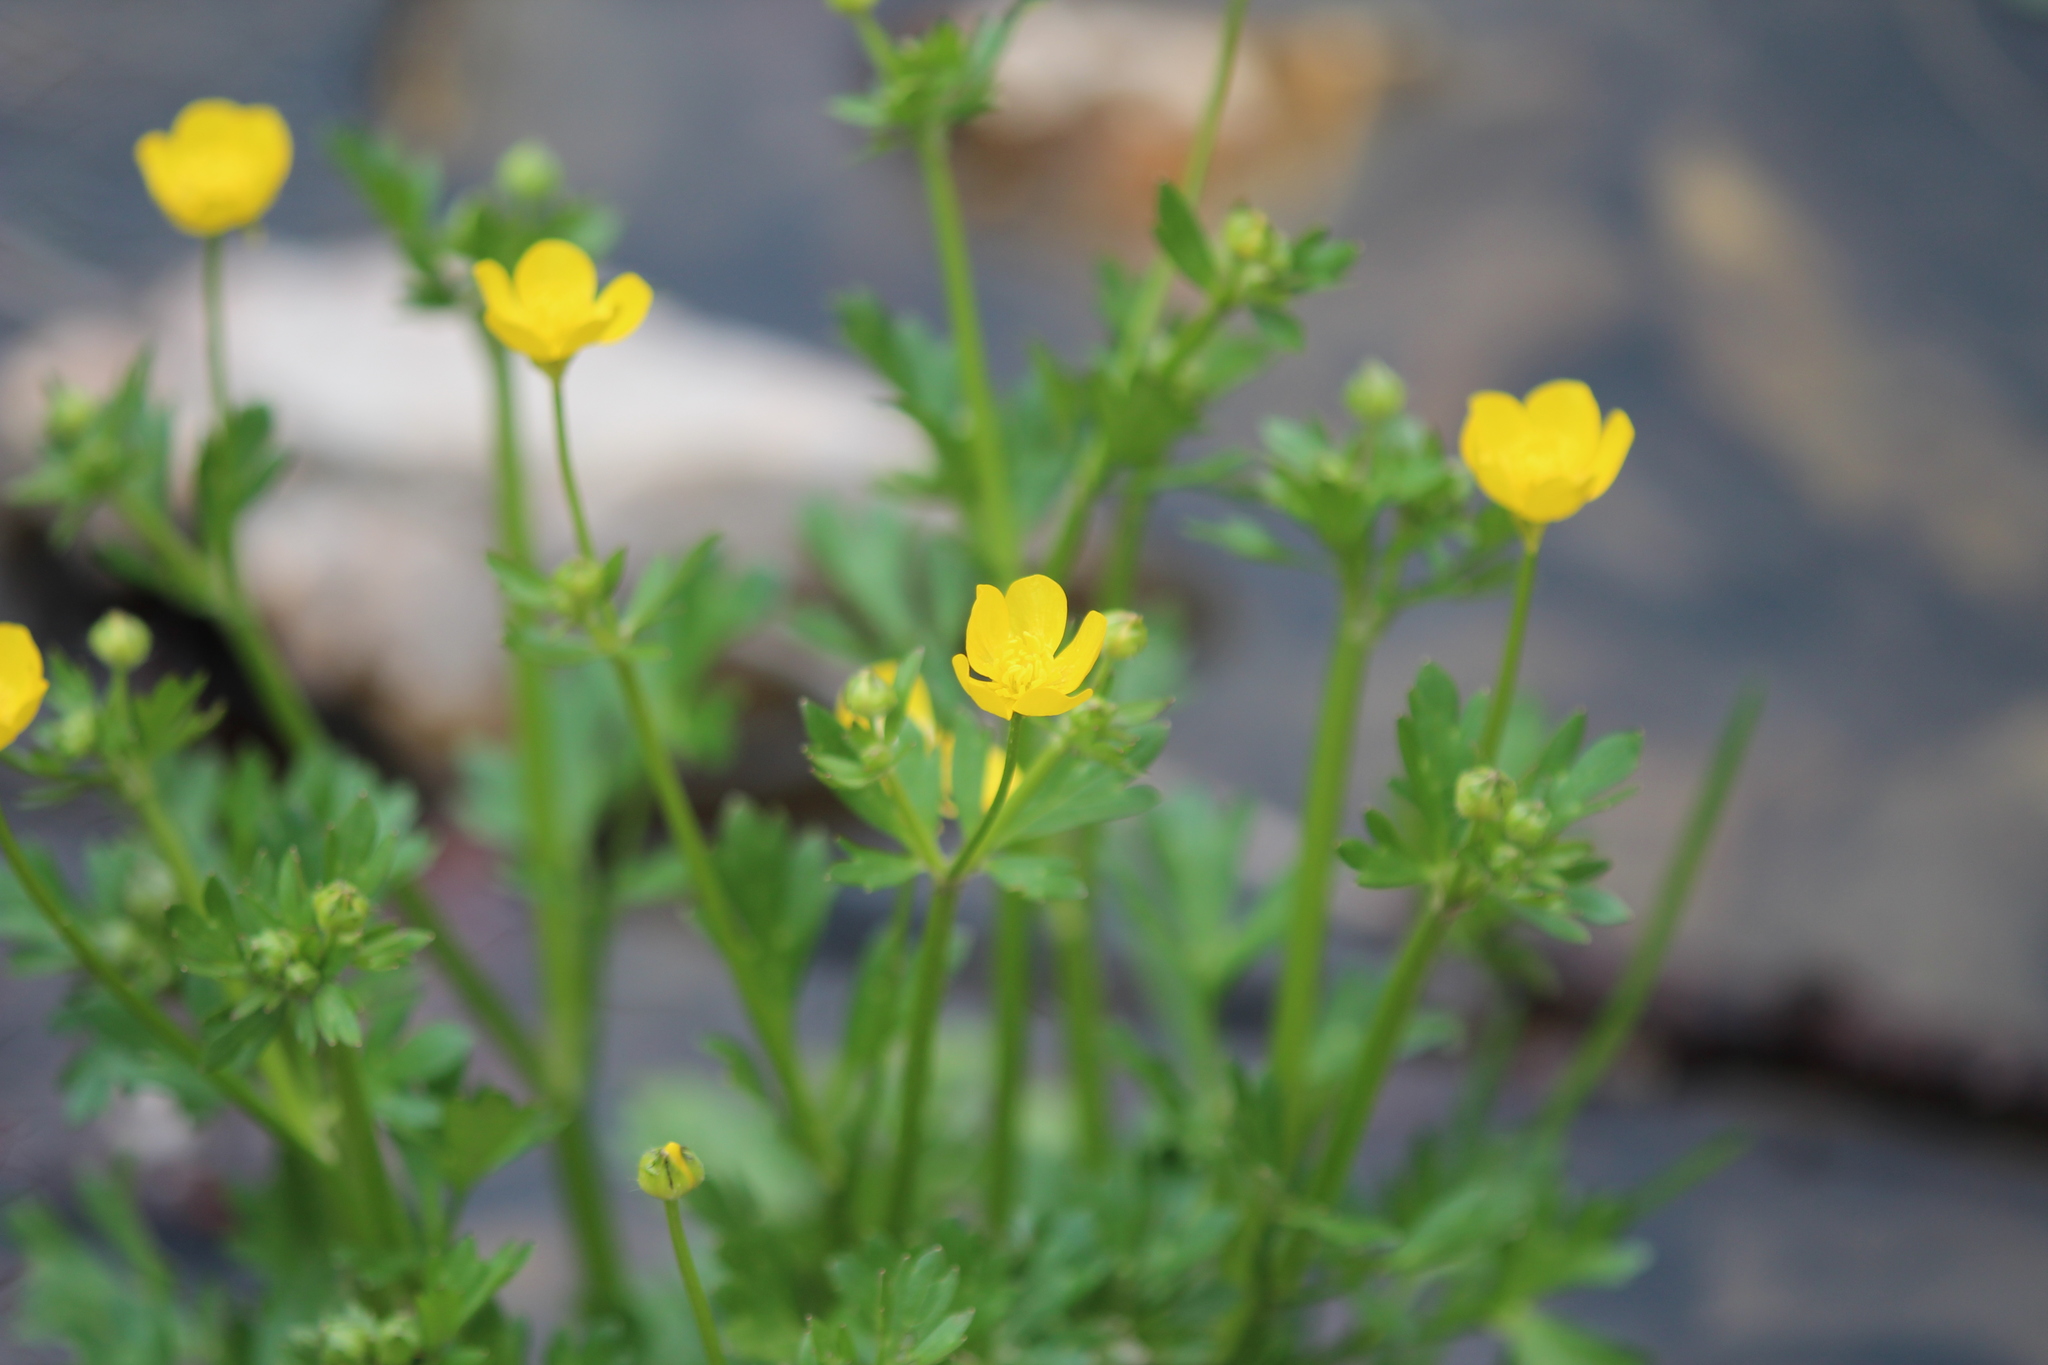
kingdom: Plantae
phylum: Tracheophyta
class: Magnoliopsida
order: Ranunculales
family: Ranunculaceae
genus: Ranunculus
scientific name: Ranunculus sardous
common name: Hairy buttercup
